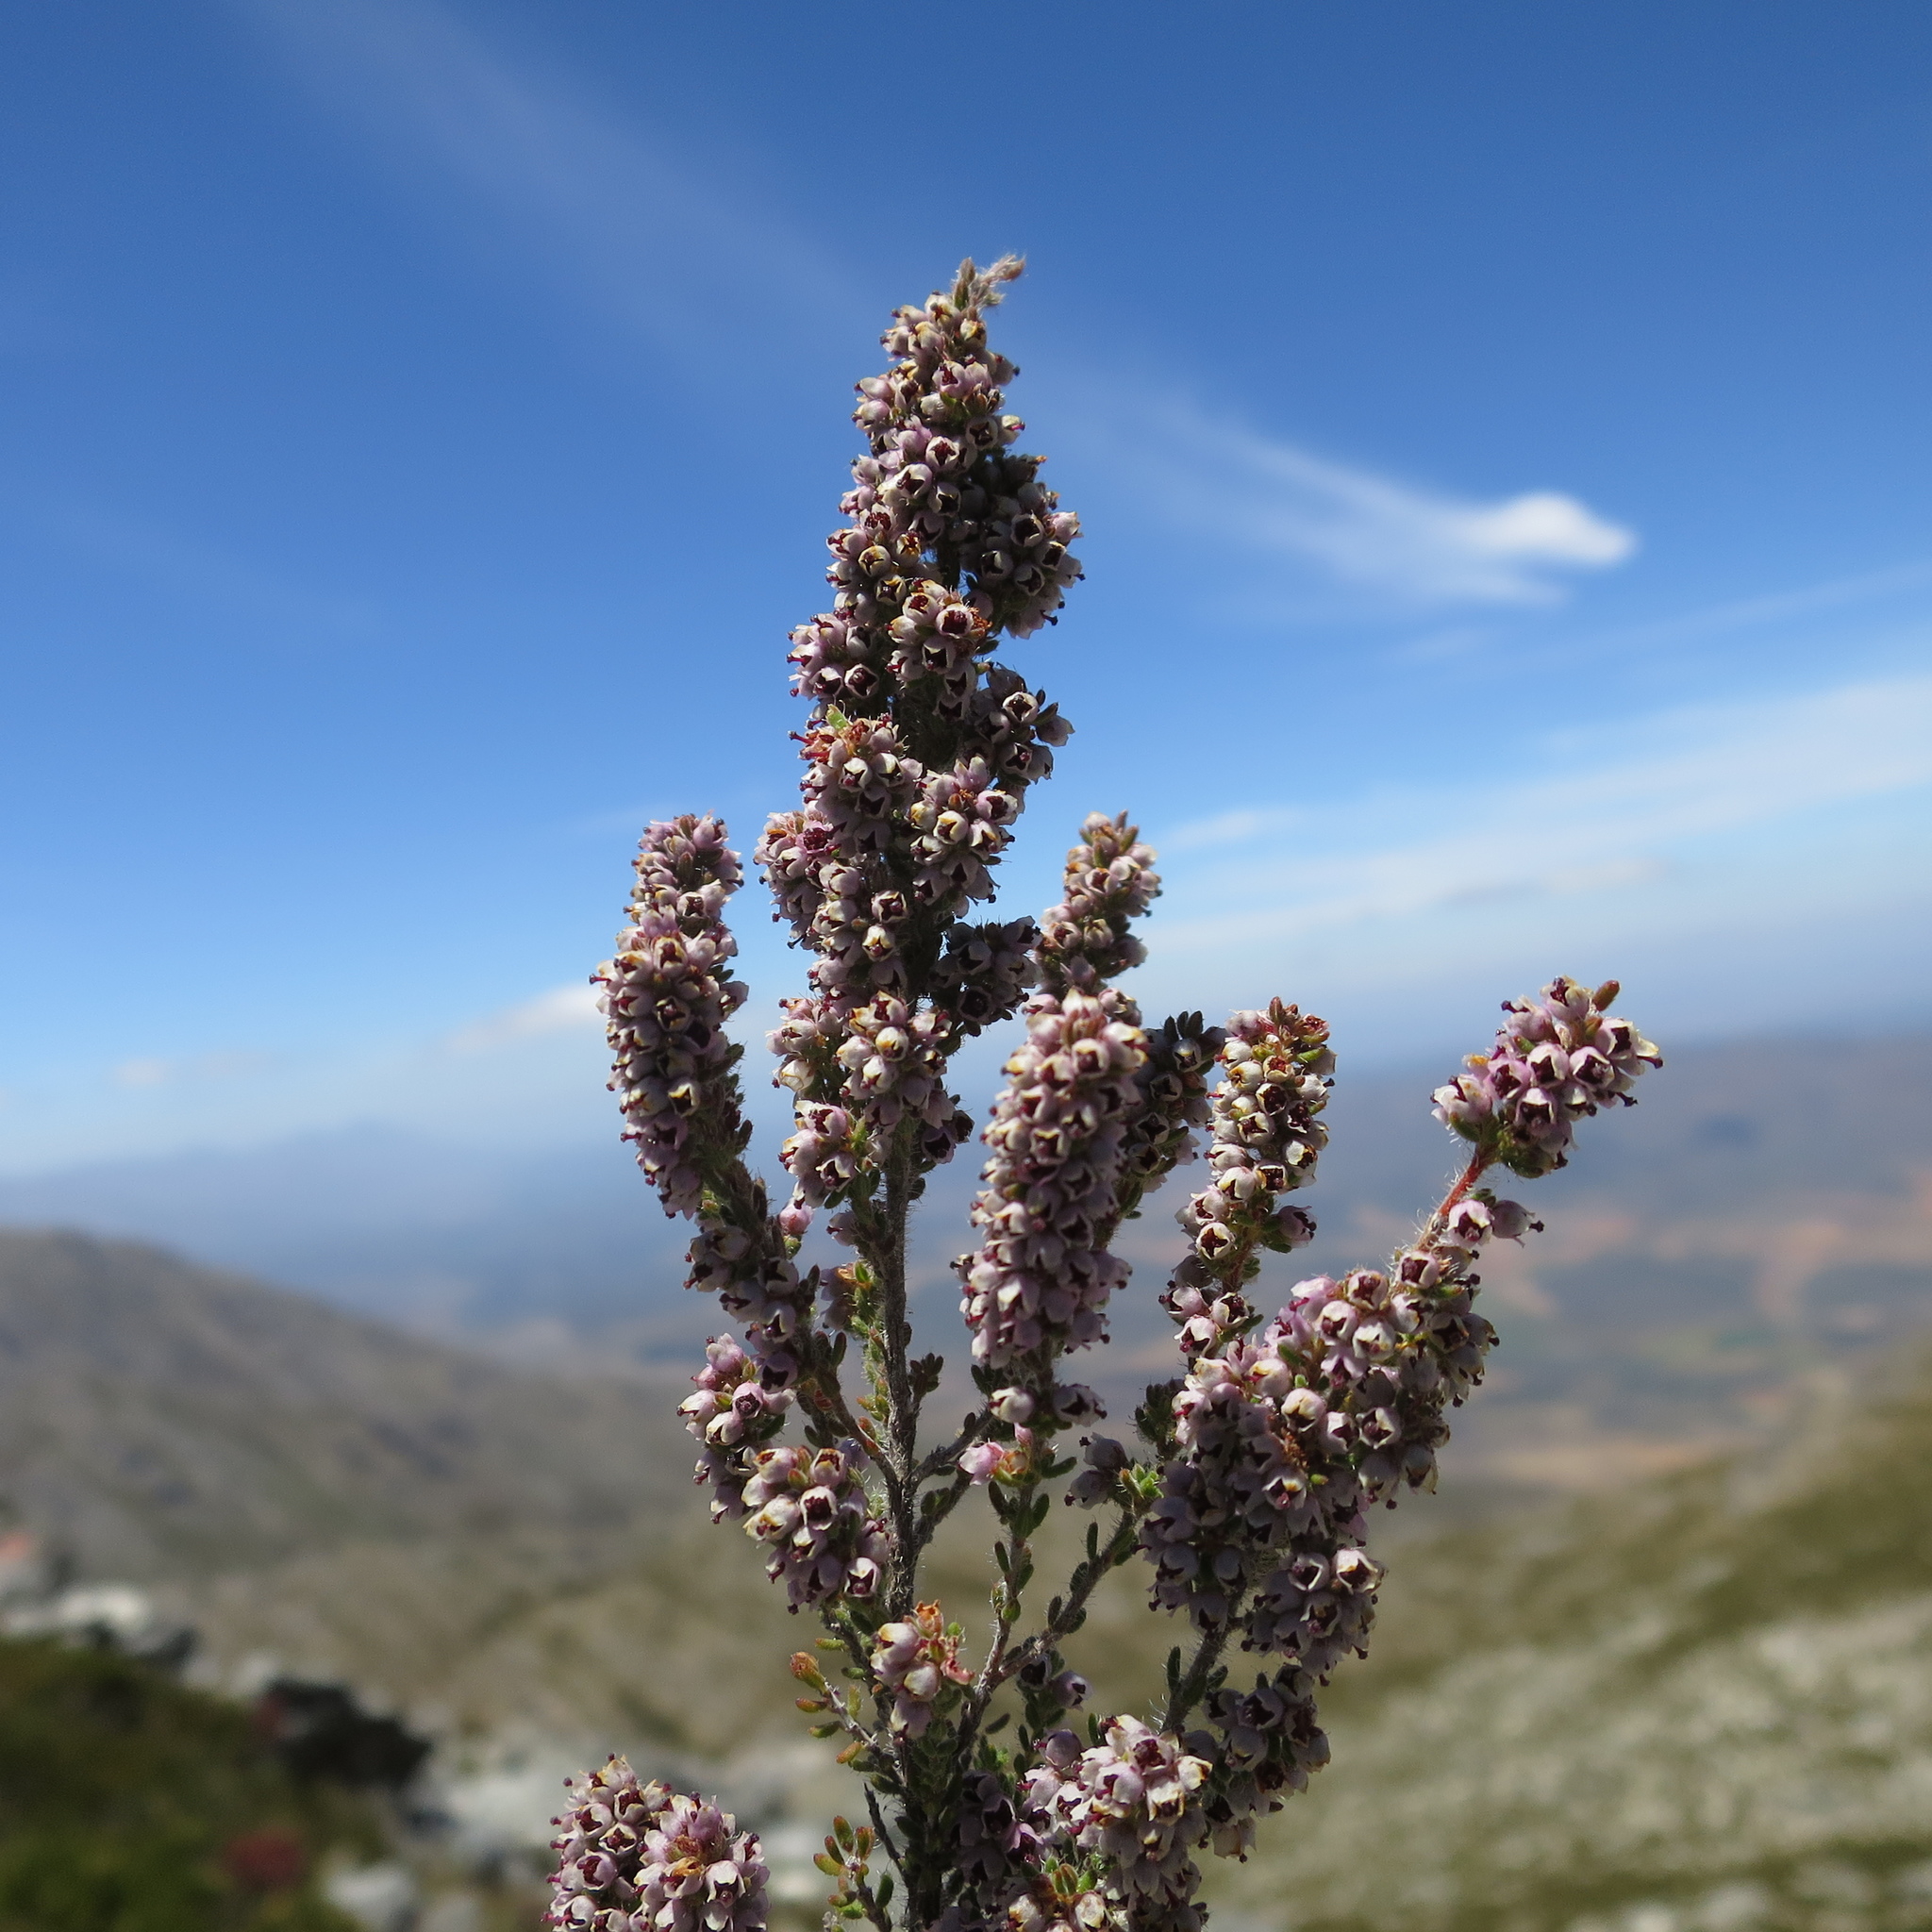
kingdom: Plantae
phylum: Tracheophyta
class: Magnoliopsida
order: Ericales
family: Ericaceae
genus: Erica
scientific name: Erica glandulipila
